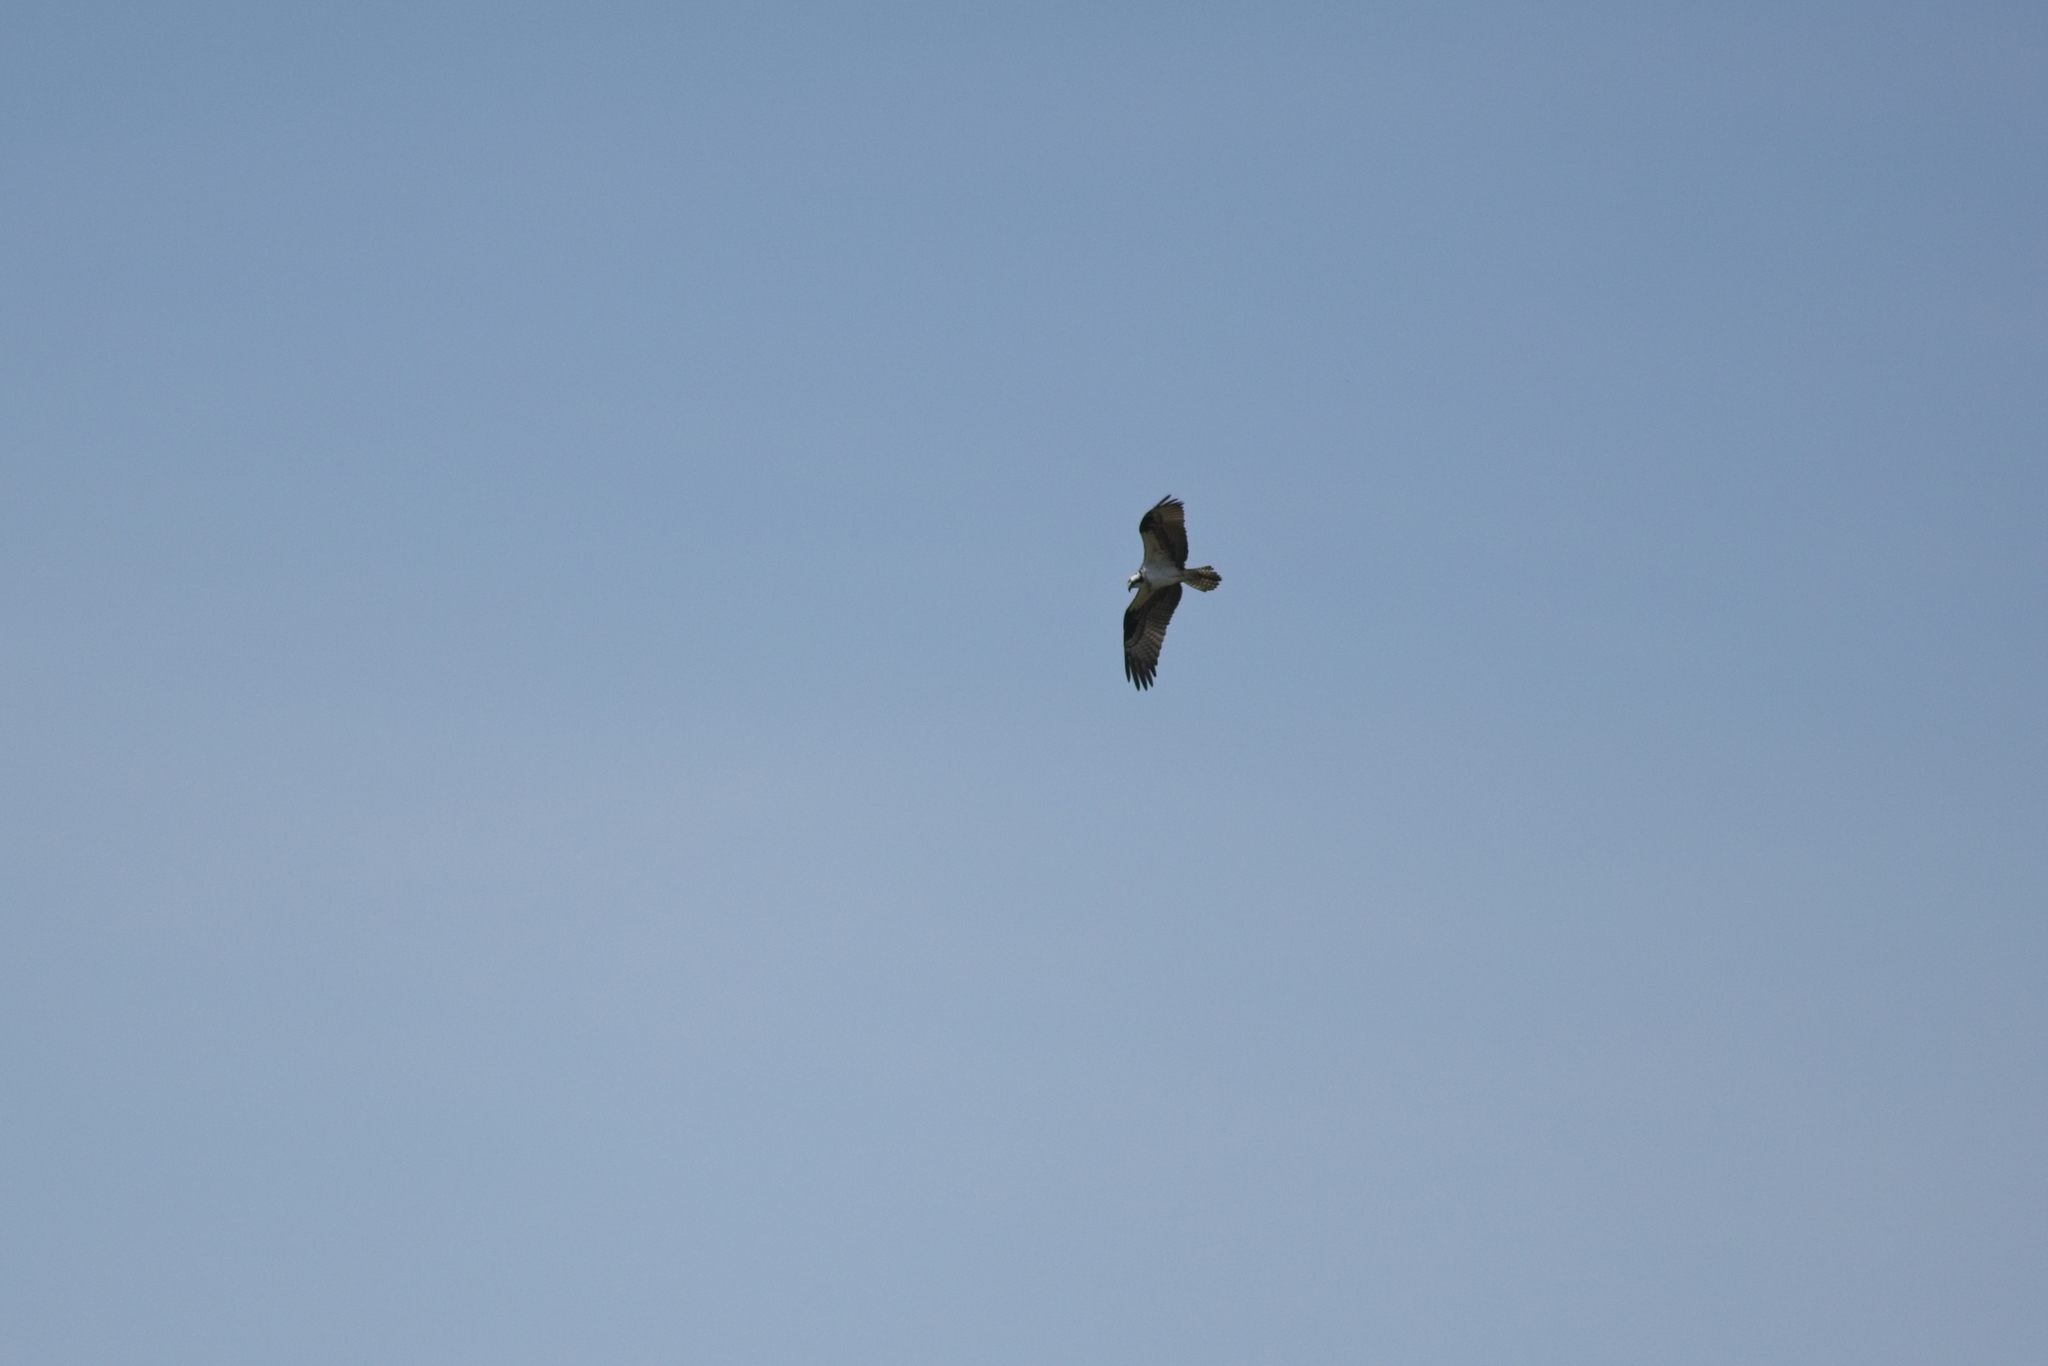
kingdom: Animalia
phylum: Chordata
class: Aves
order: Accipitriformes
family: Pandionidae
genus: Pandion
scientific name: Pandion haliaetus
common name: Osprey
